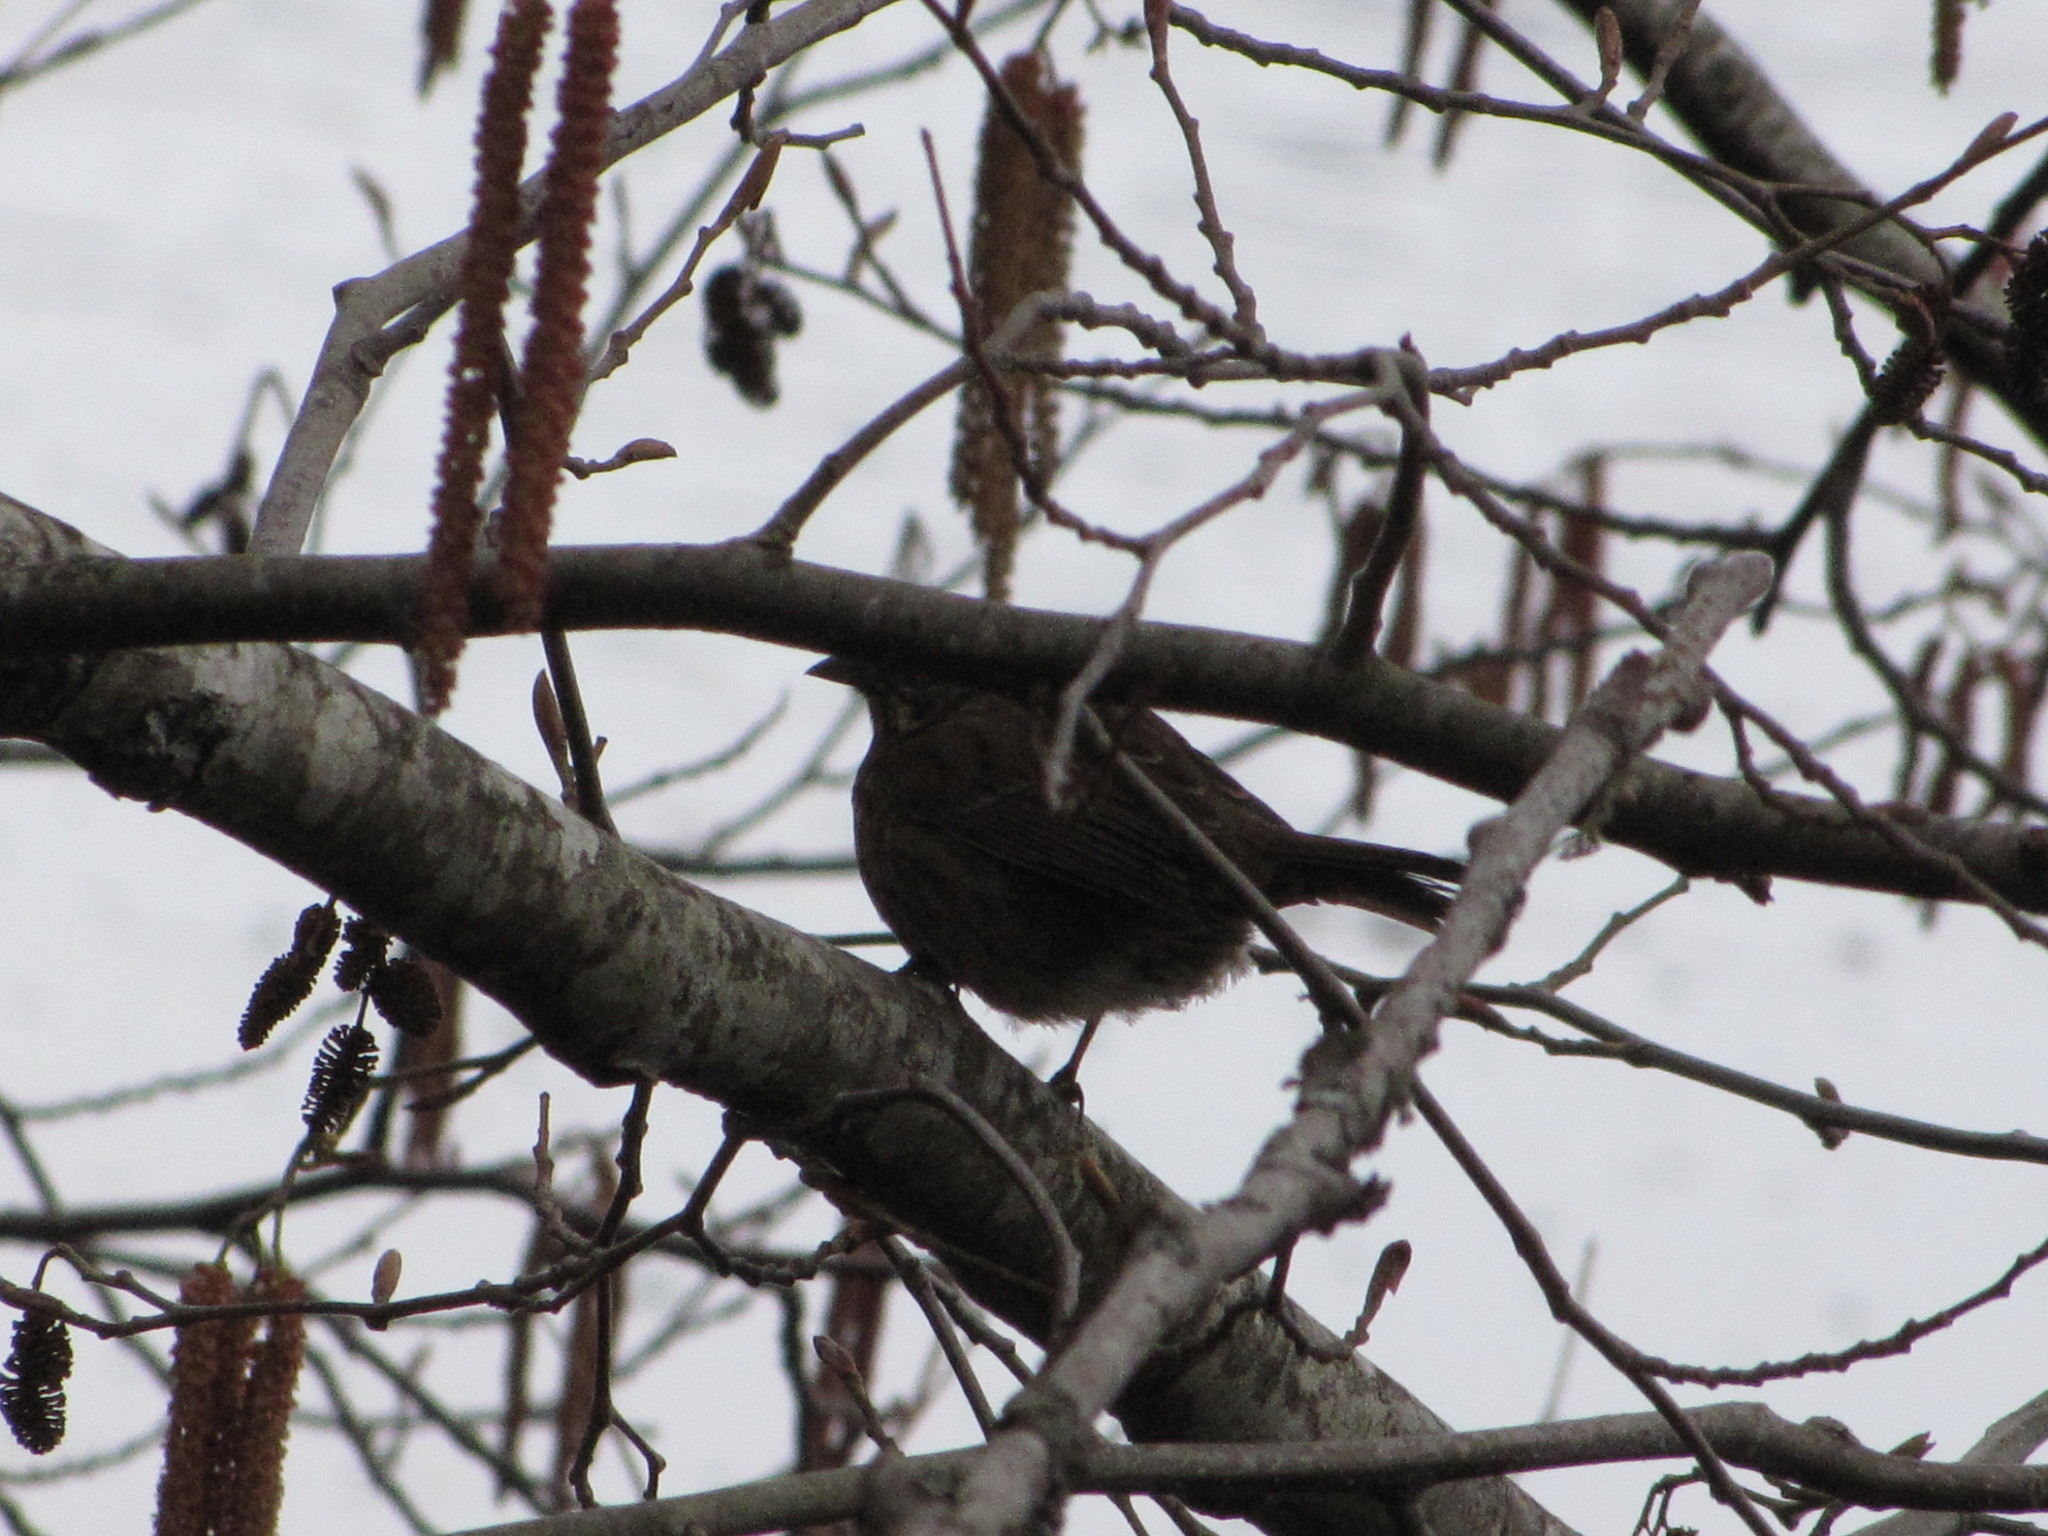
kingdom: Animalia
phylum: Chordata
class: Aves
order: Passeriformes
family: Passerellidae
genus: Melospiza
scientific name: Melospiza melodia
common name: Song sparrow
